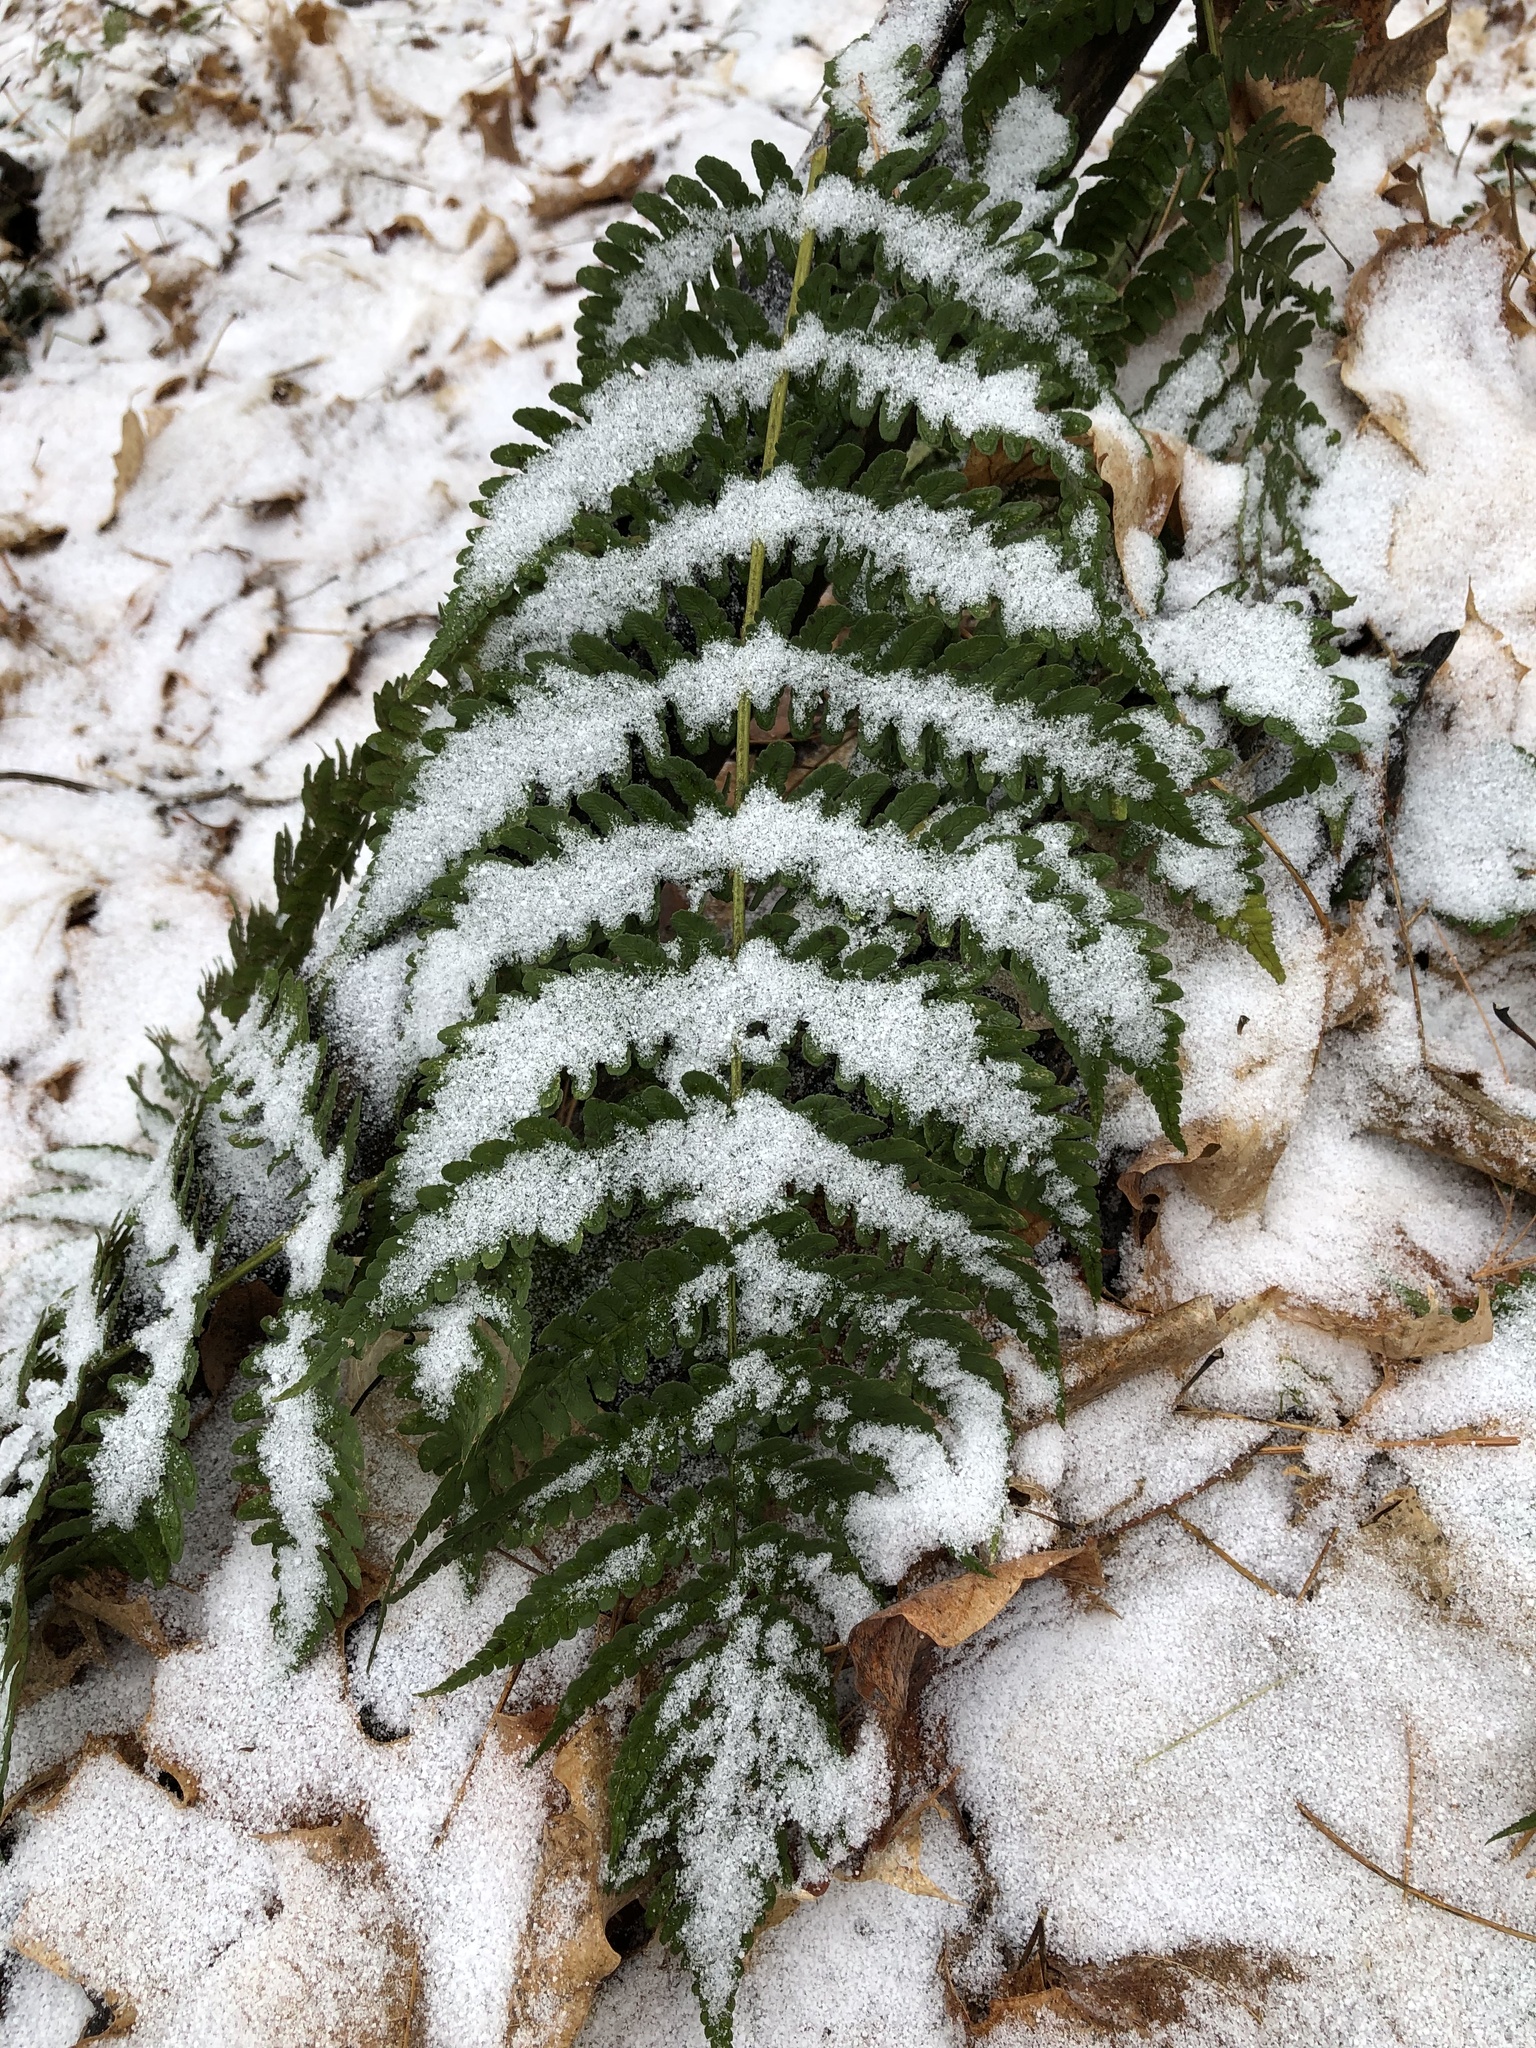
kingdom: Plantae
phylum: Tracheophyta
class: Polypodiopsida
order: Polypodiales
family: Dryopteridaceae
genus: Dryopteris
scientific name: Dryopteris marginalis
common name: Marginal wood fern
